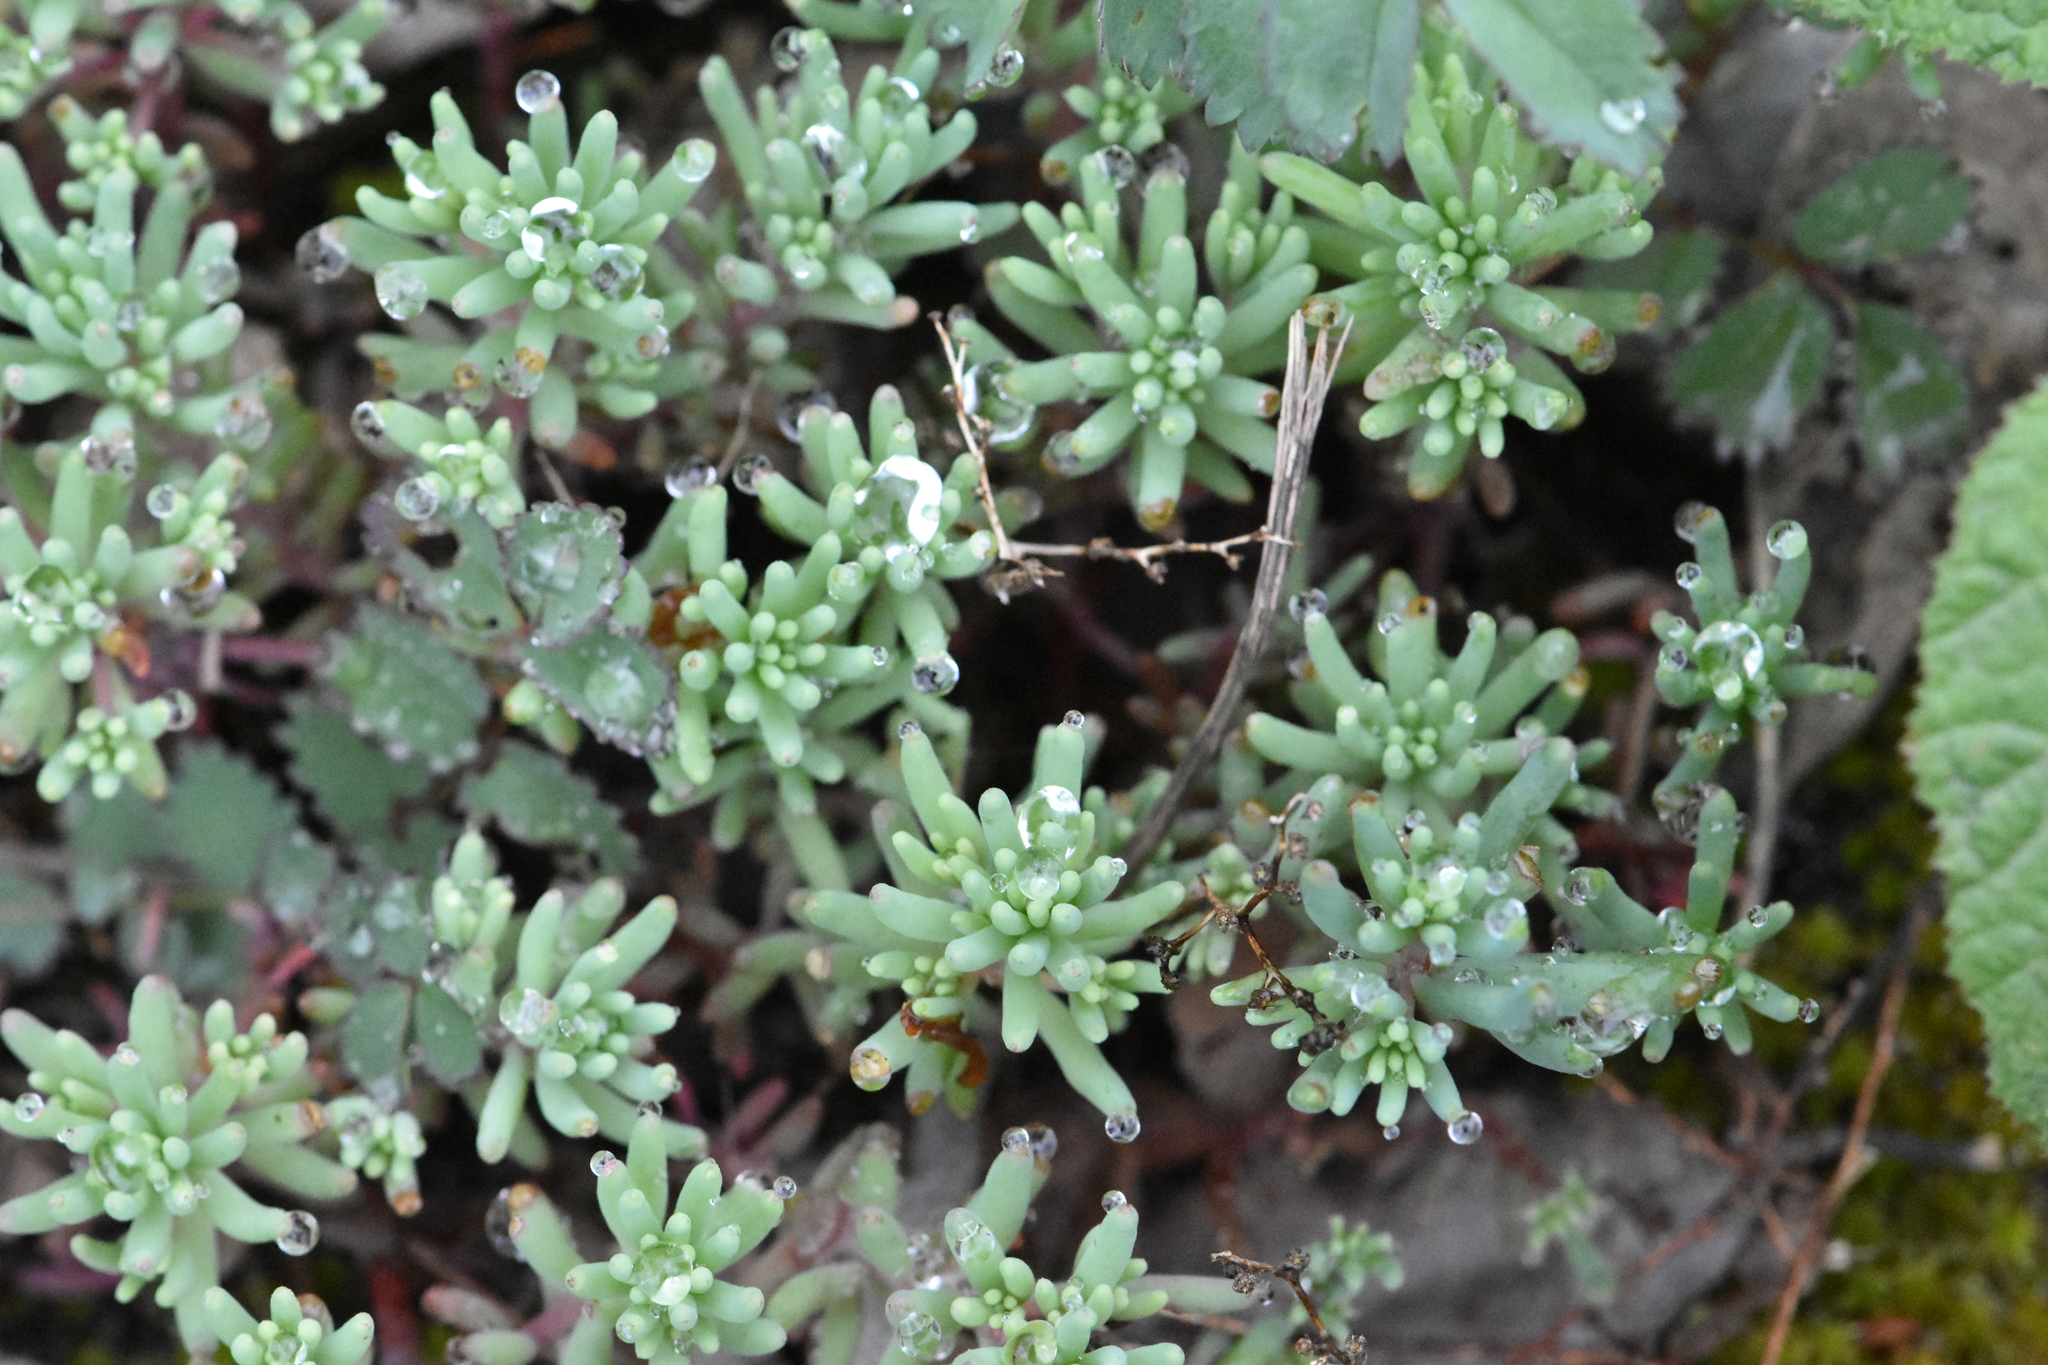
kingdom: Plantae
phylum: Tracheophyta
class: Magnoliopsida
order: Saxifragales
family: Crassulaceae
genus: Sedum
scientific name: Sedum pallidum
